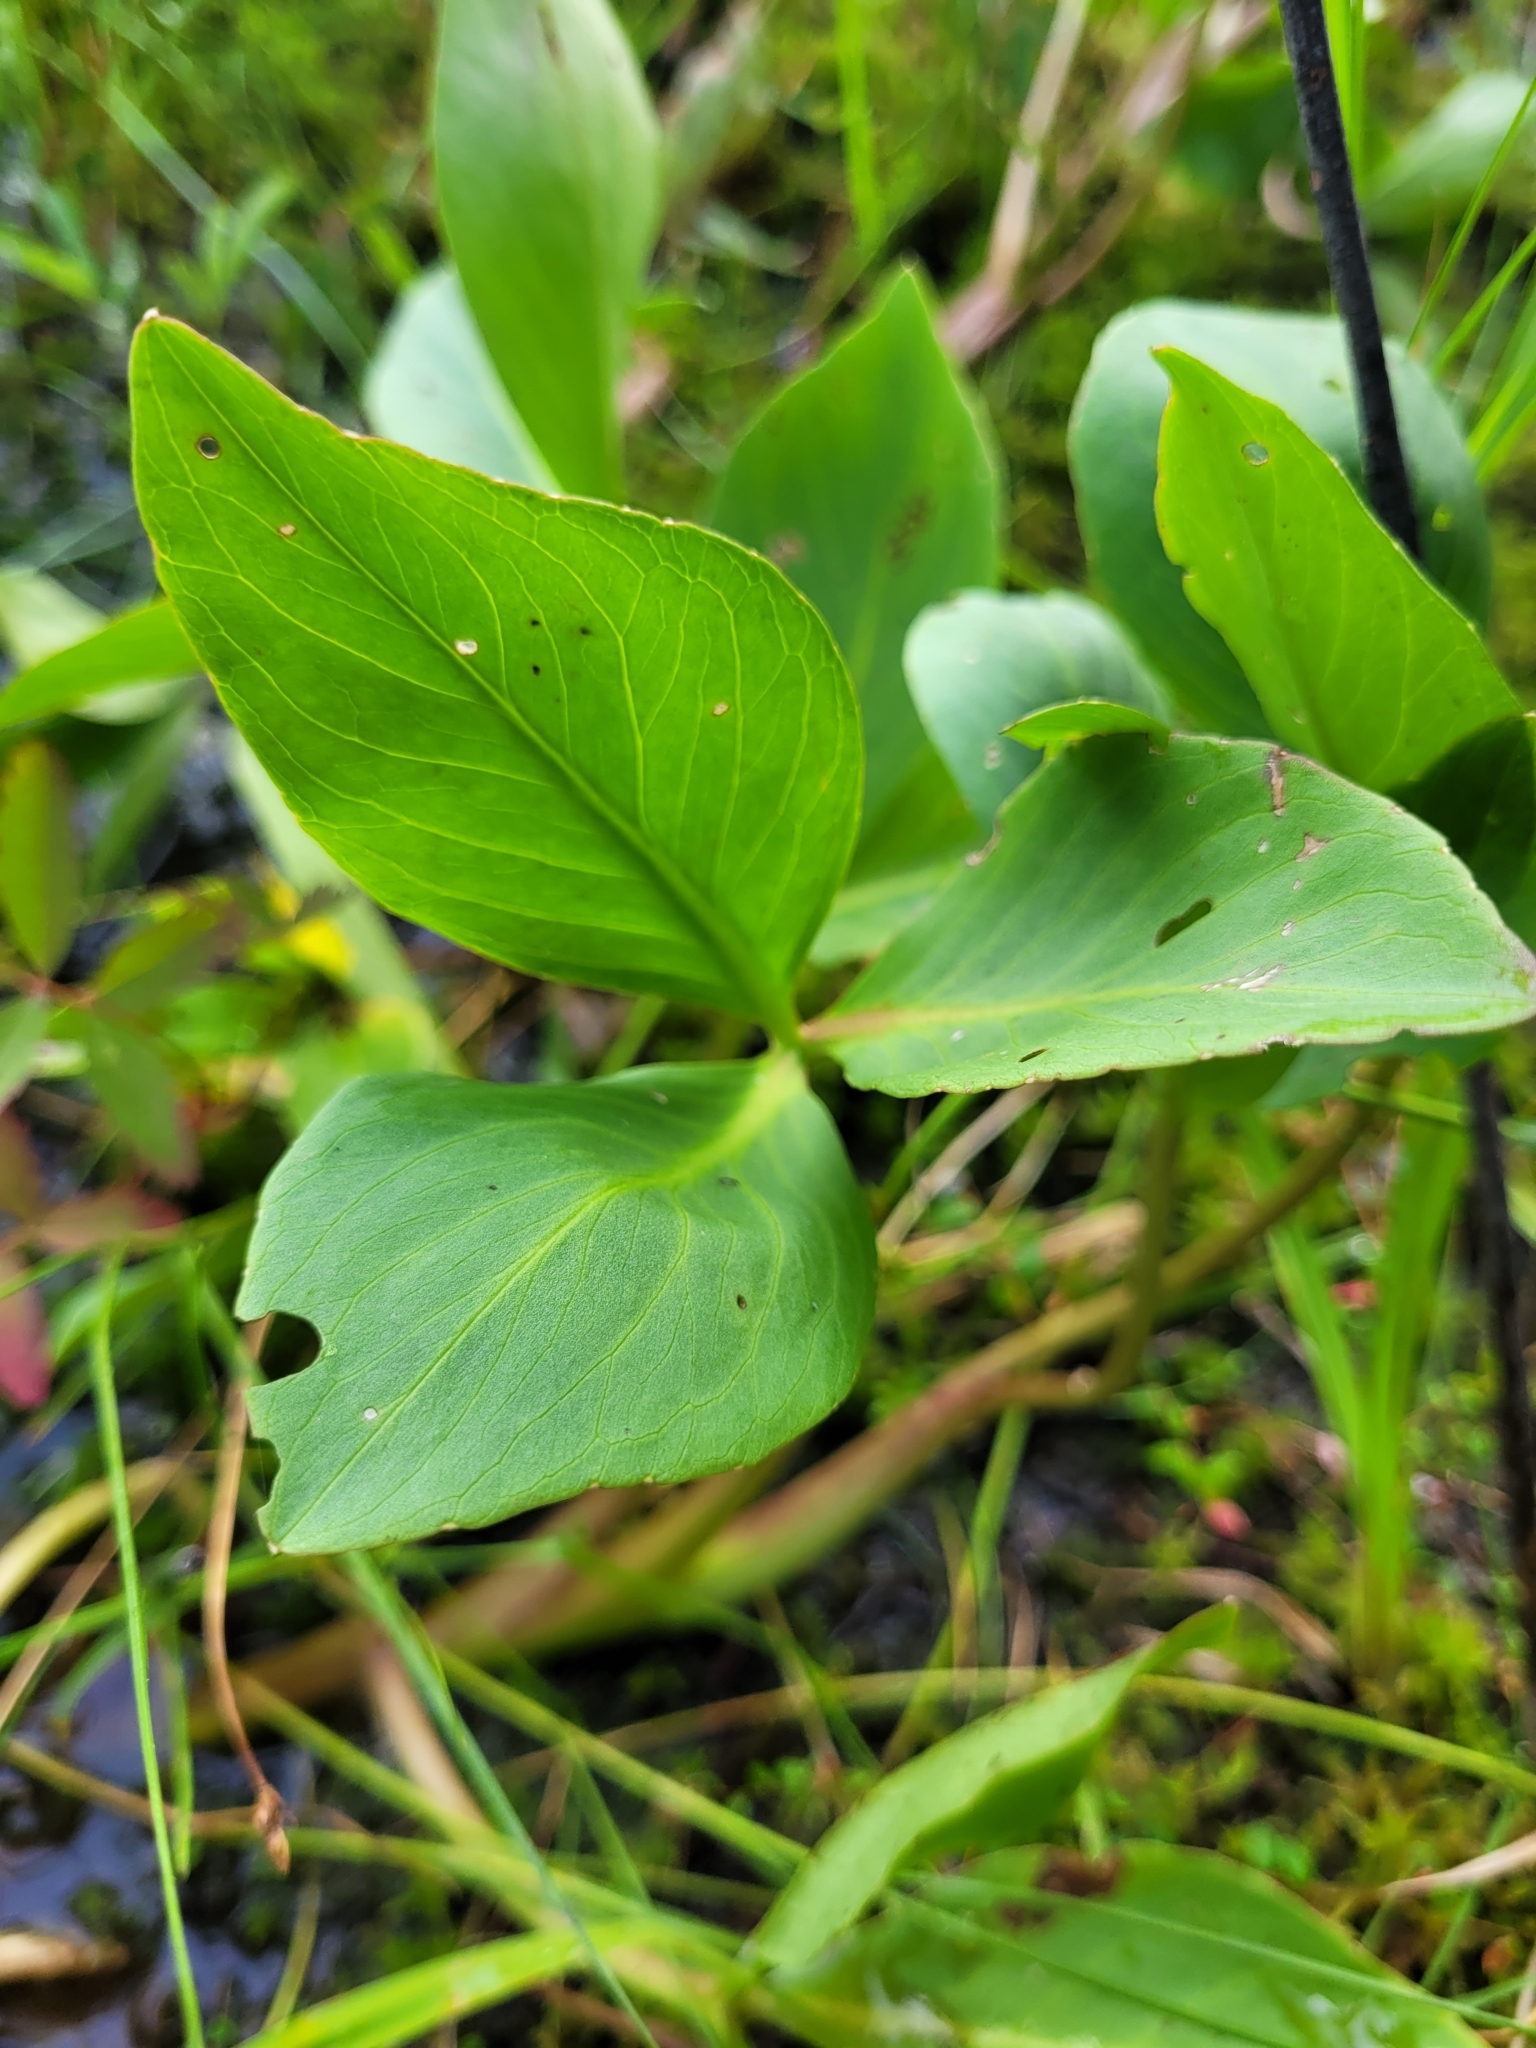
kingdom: Plantae
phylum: Tracheophyta
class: Magnoliopsida
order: Asterales
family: Menyanthaceae
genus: Menyanthes
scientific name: Menyanthes trifoliata
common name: Bogbean
